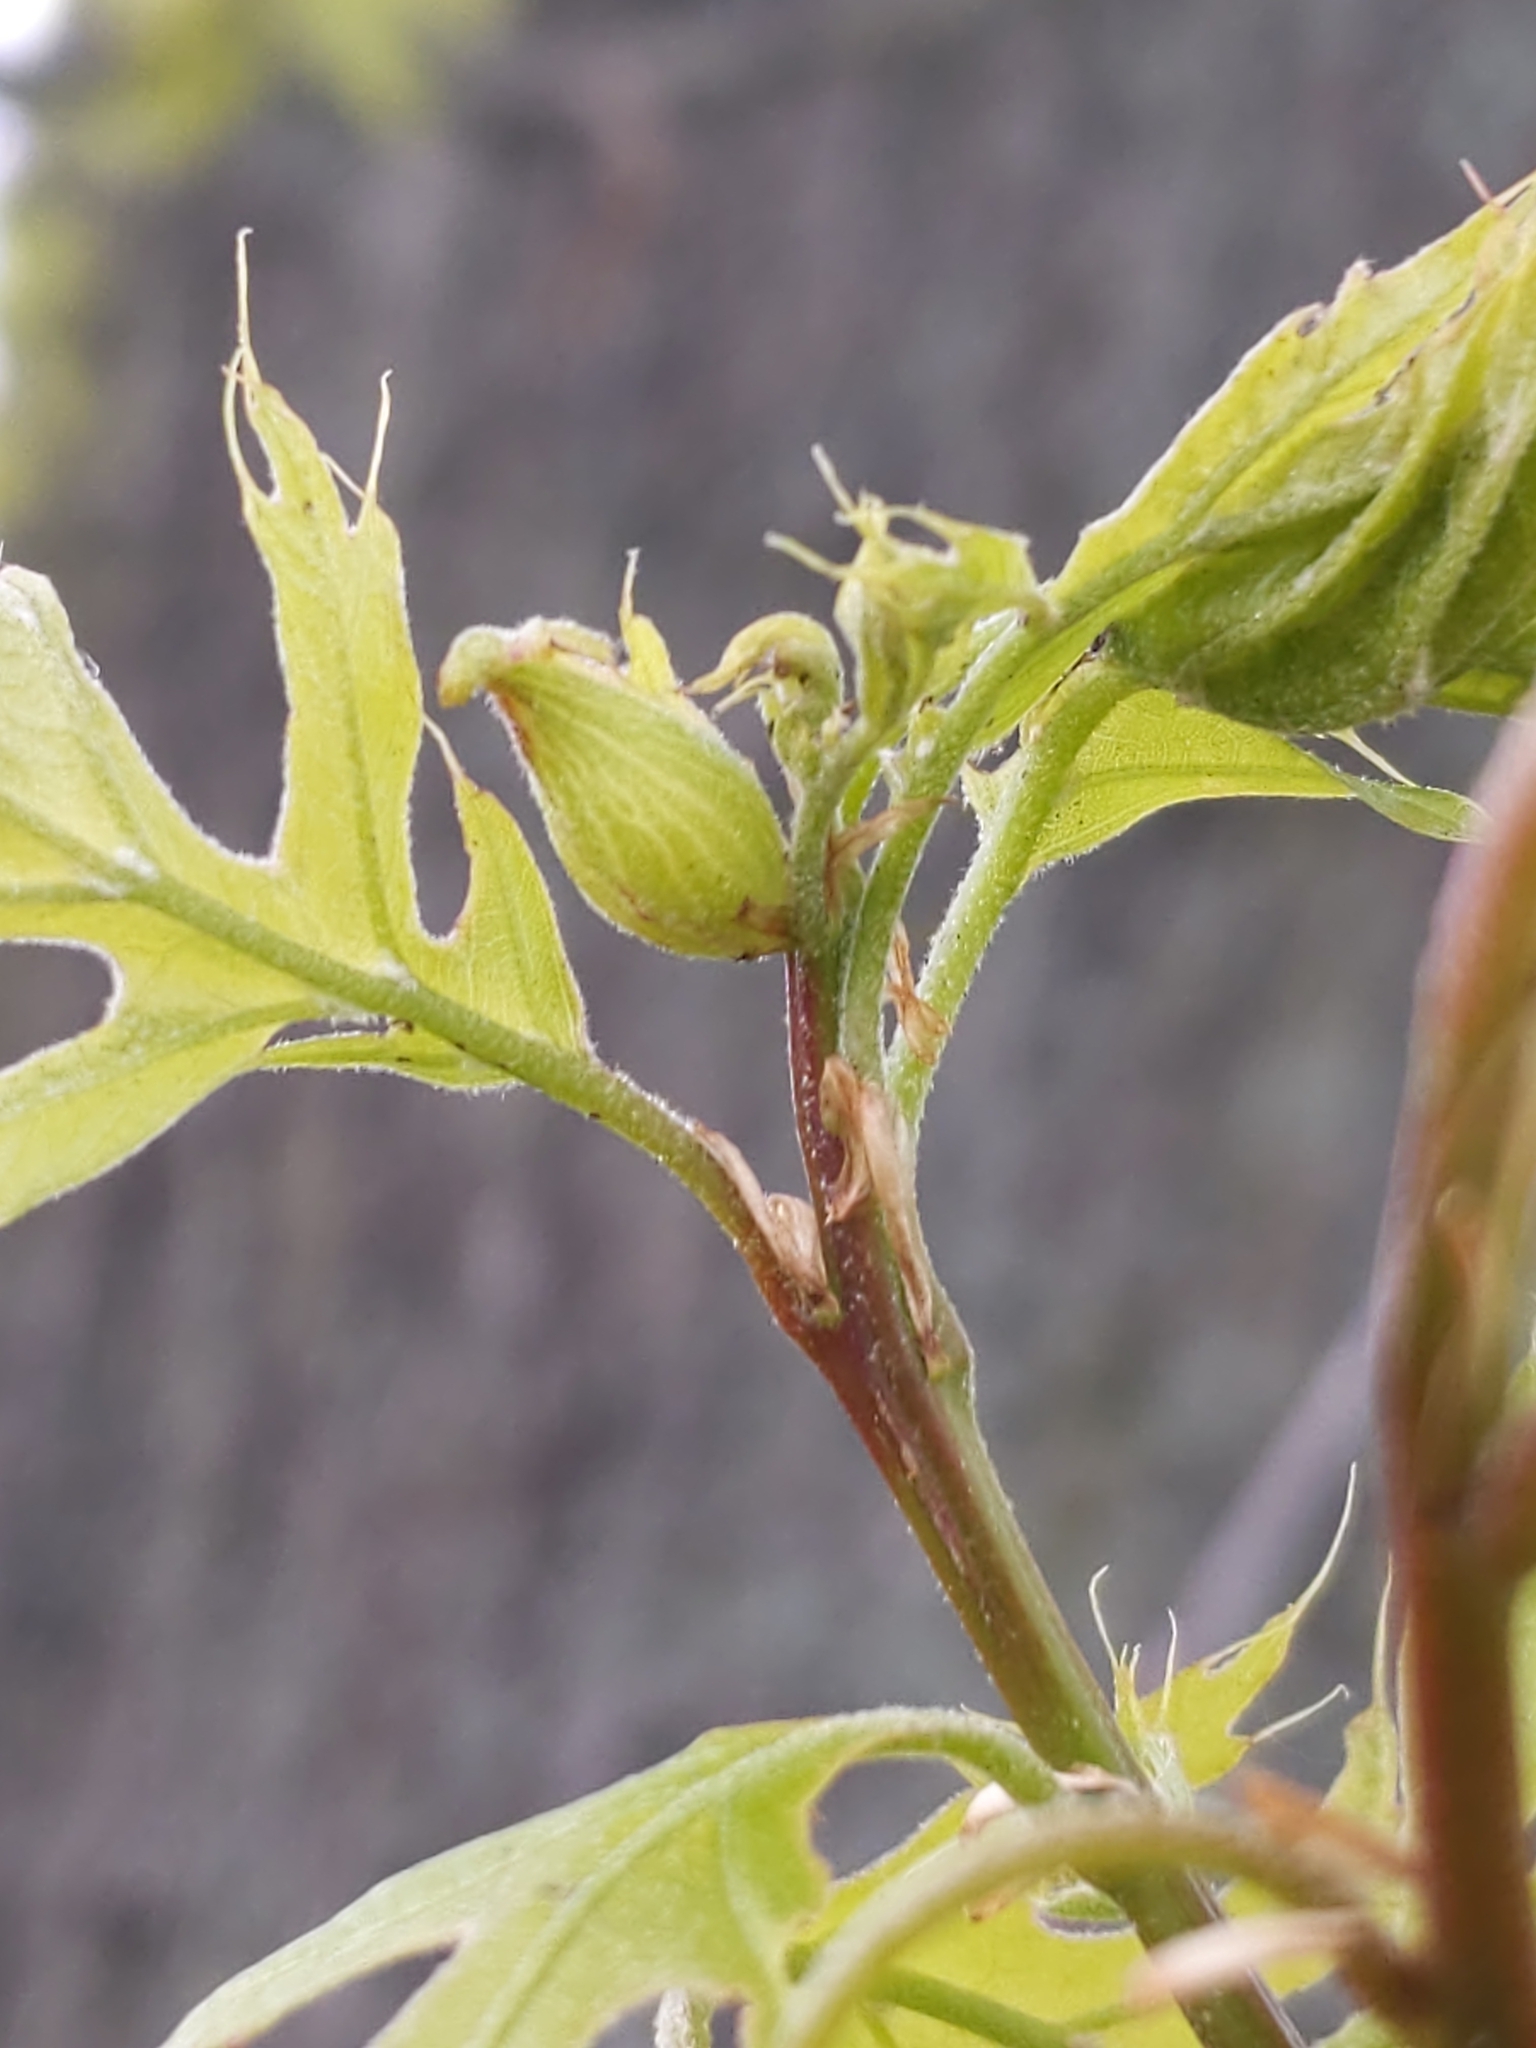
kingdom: Animalia
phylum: Arthropoda
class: Insecta
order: Hymenoptera
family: Cynipidae
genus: Dryocosmus
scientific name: Dryocosmus
